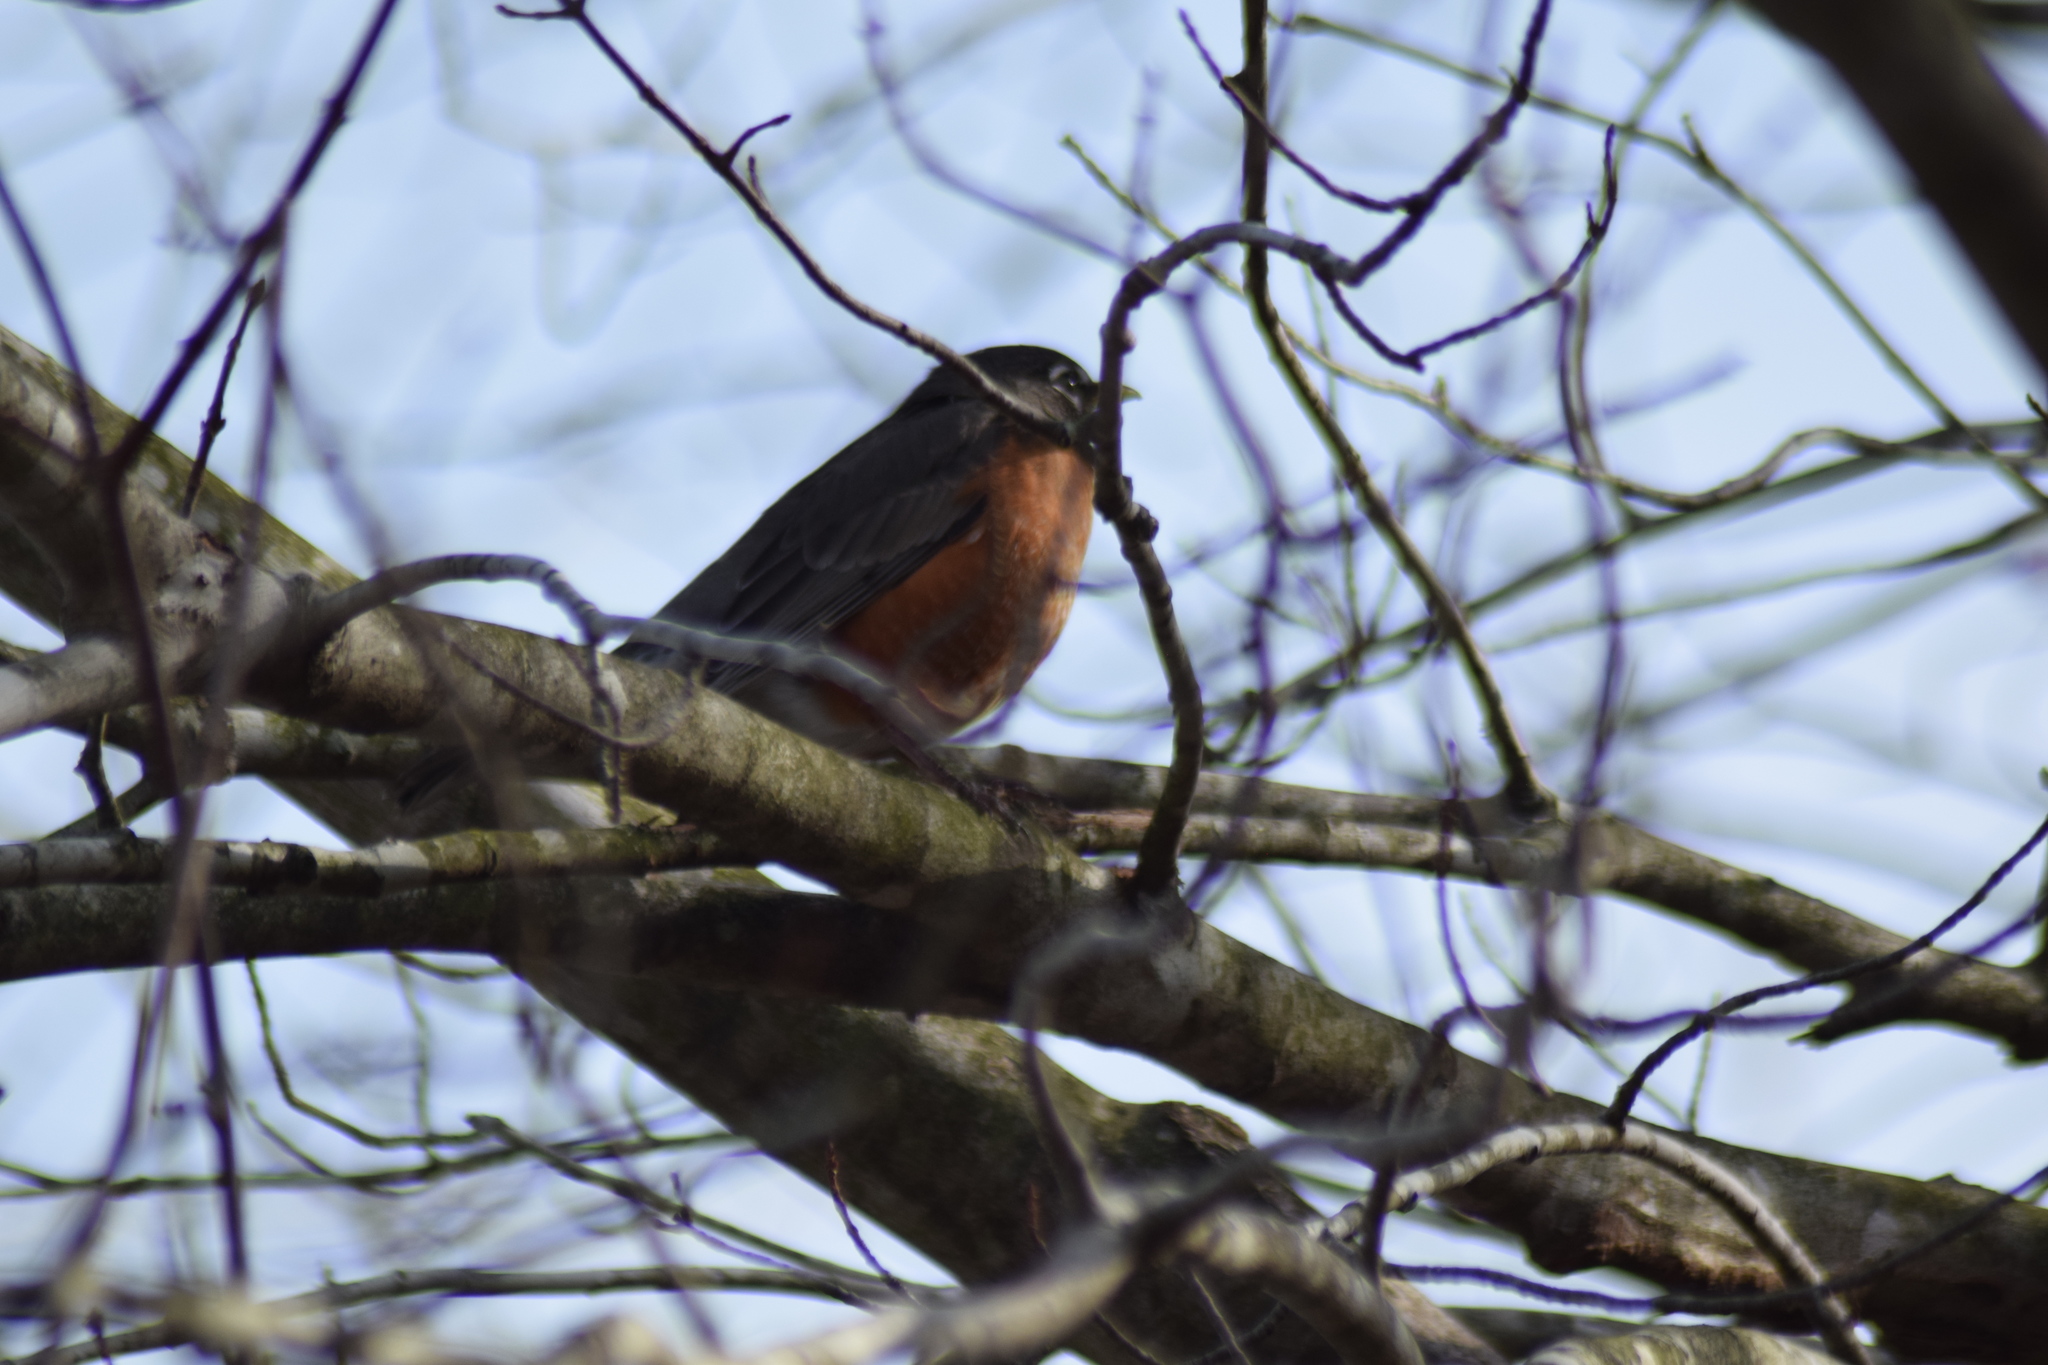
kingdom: Animalia
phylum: Chordata
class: Aves
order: Passeriformes
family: Turdidae
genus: Turdus
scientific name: Turdus migratorius
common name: American robin
